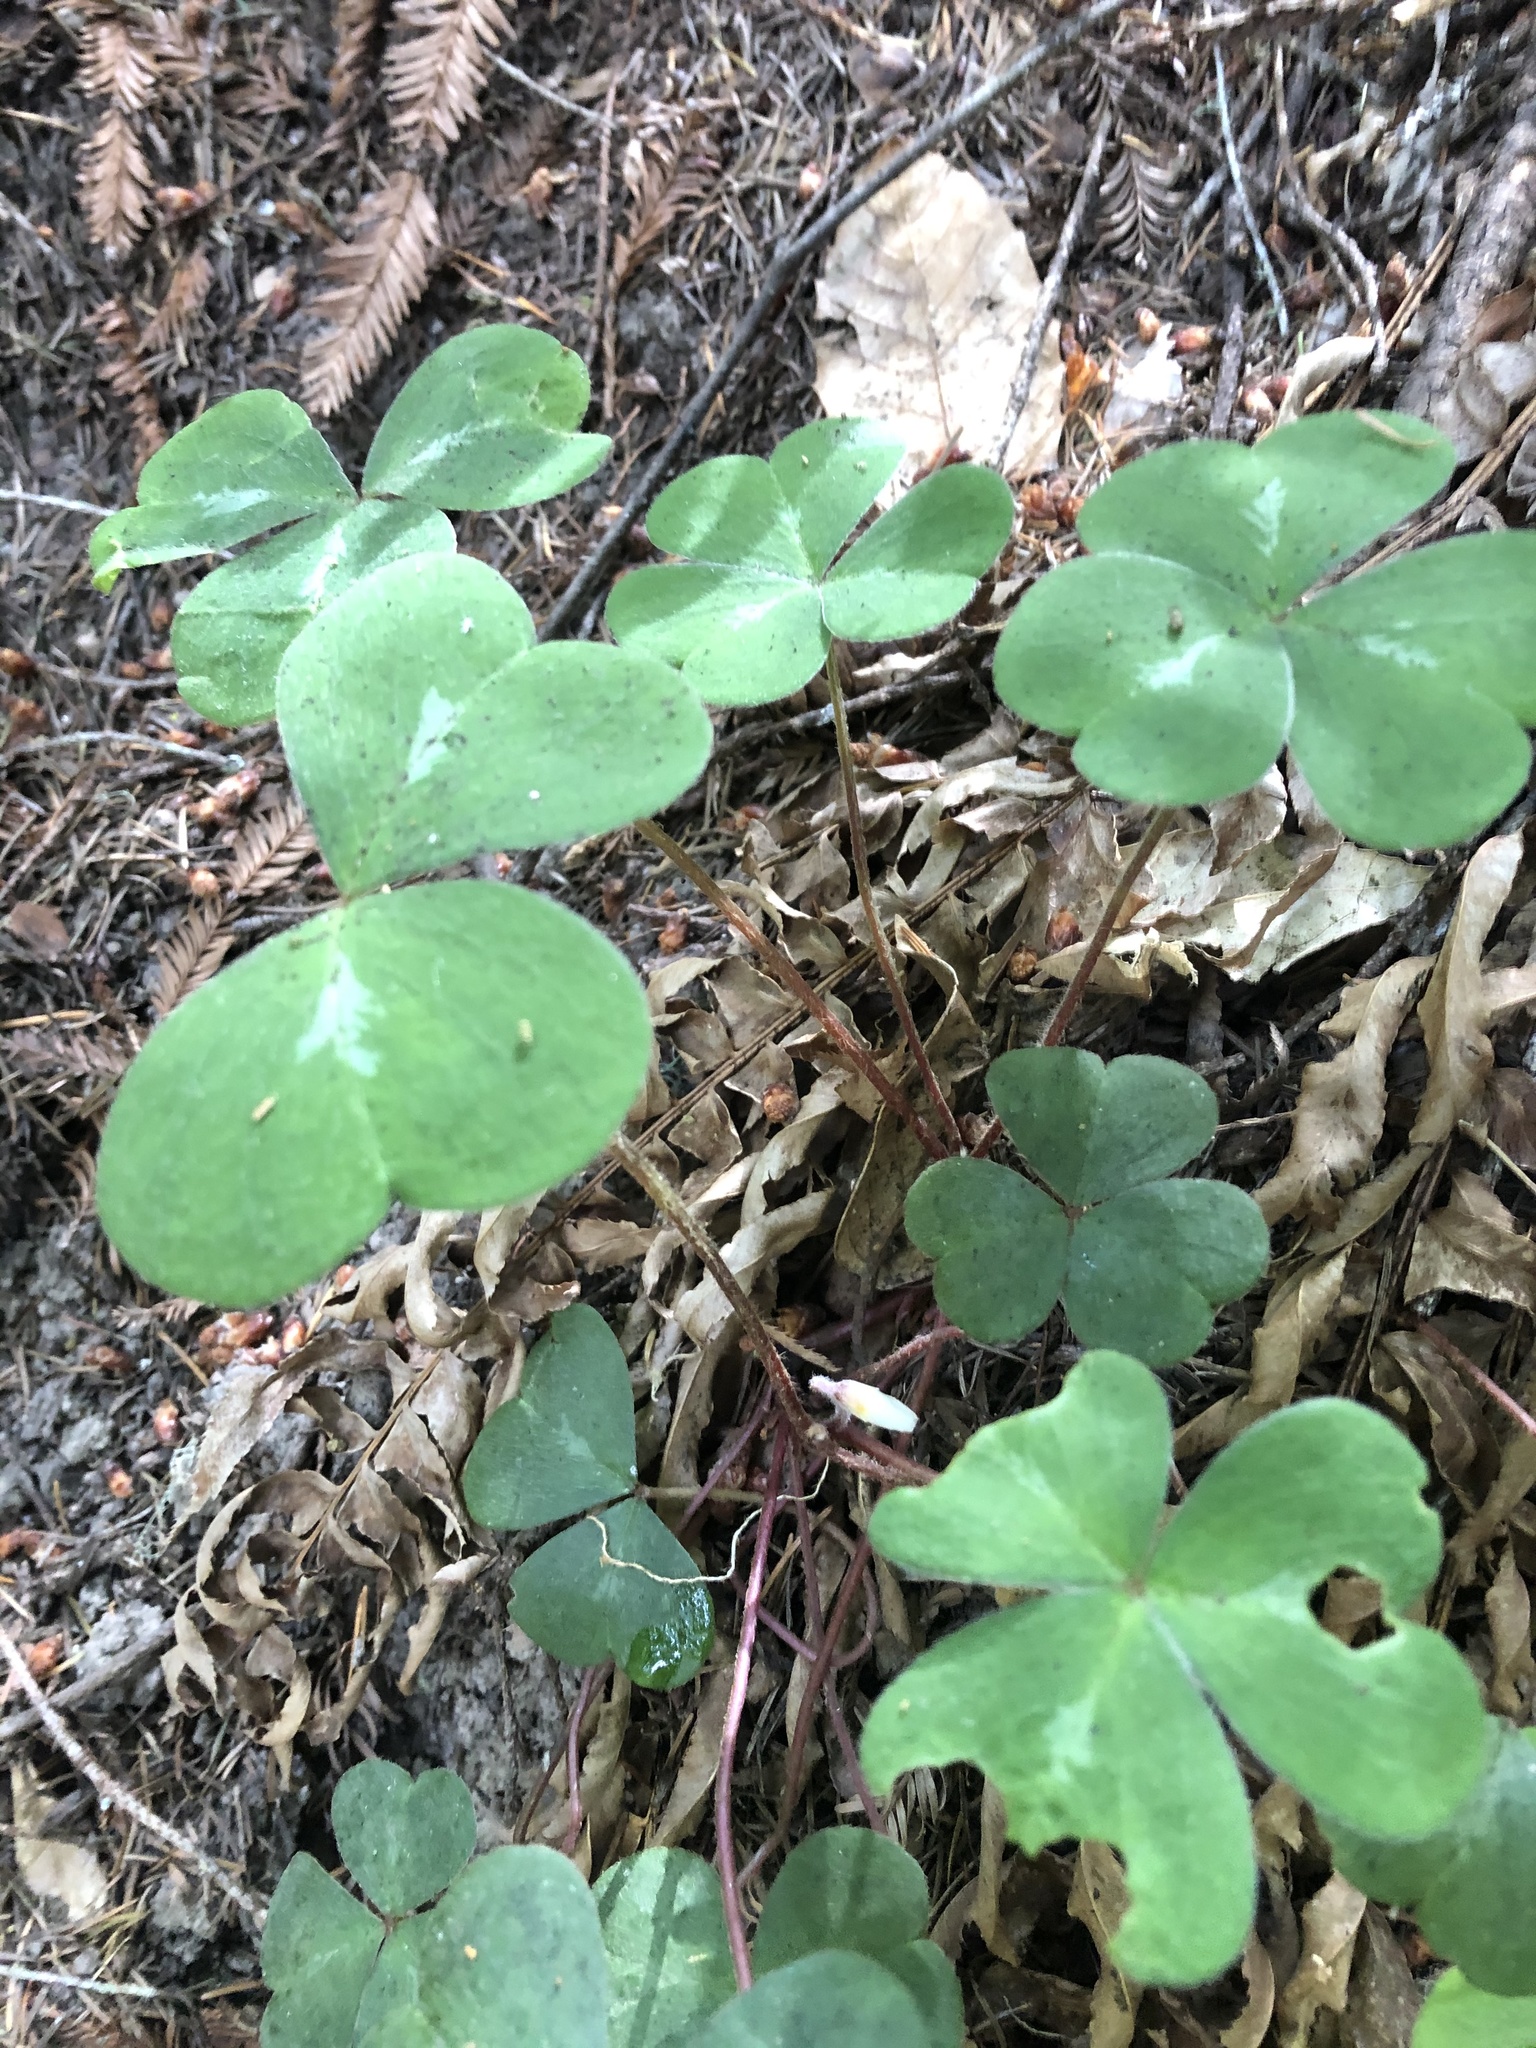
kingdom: Plantae
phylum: Tracheophyta
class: Magnoliopsida
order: Oxalidales
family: Oxalidaceae
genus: Oxalis
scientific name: Oxalis oregana
